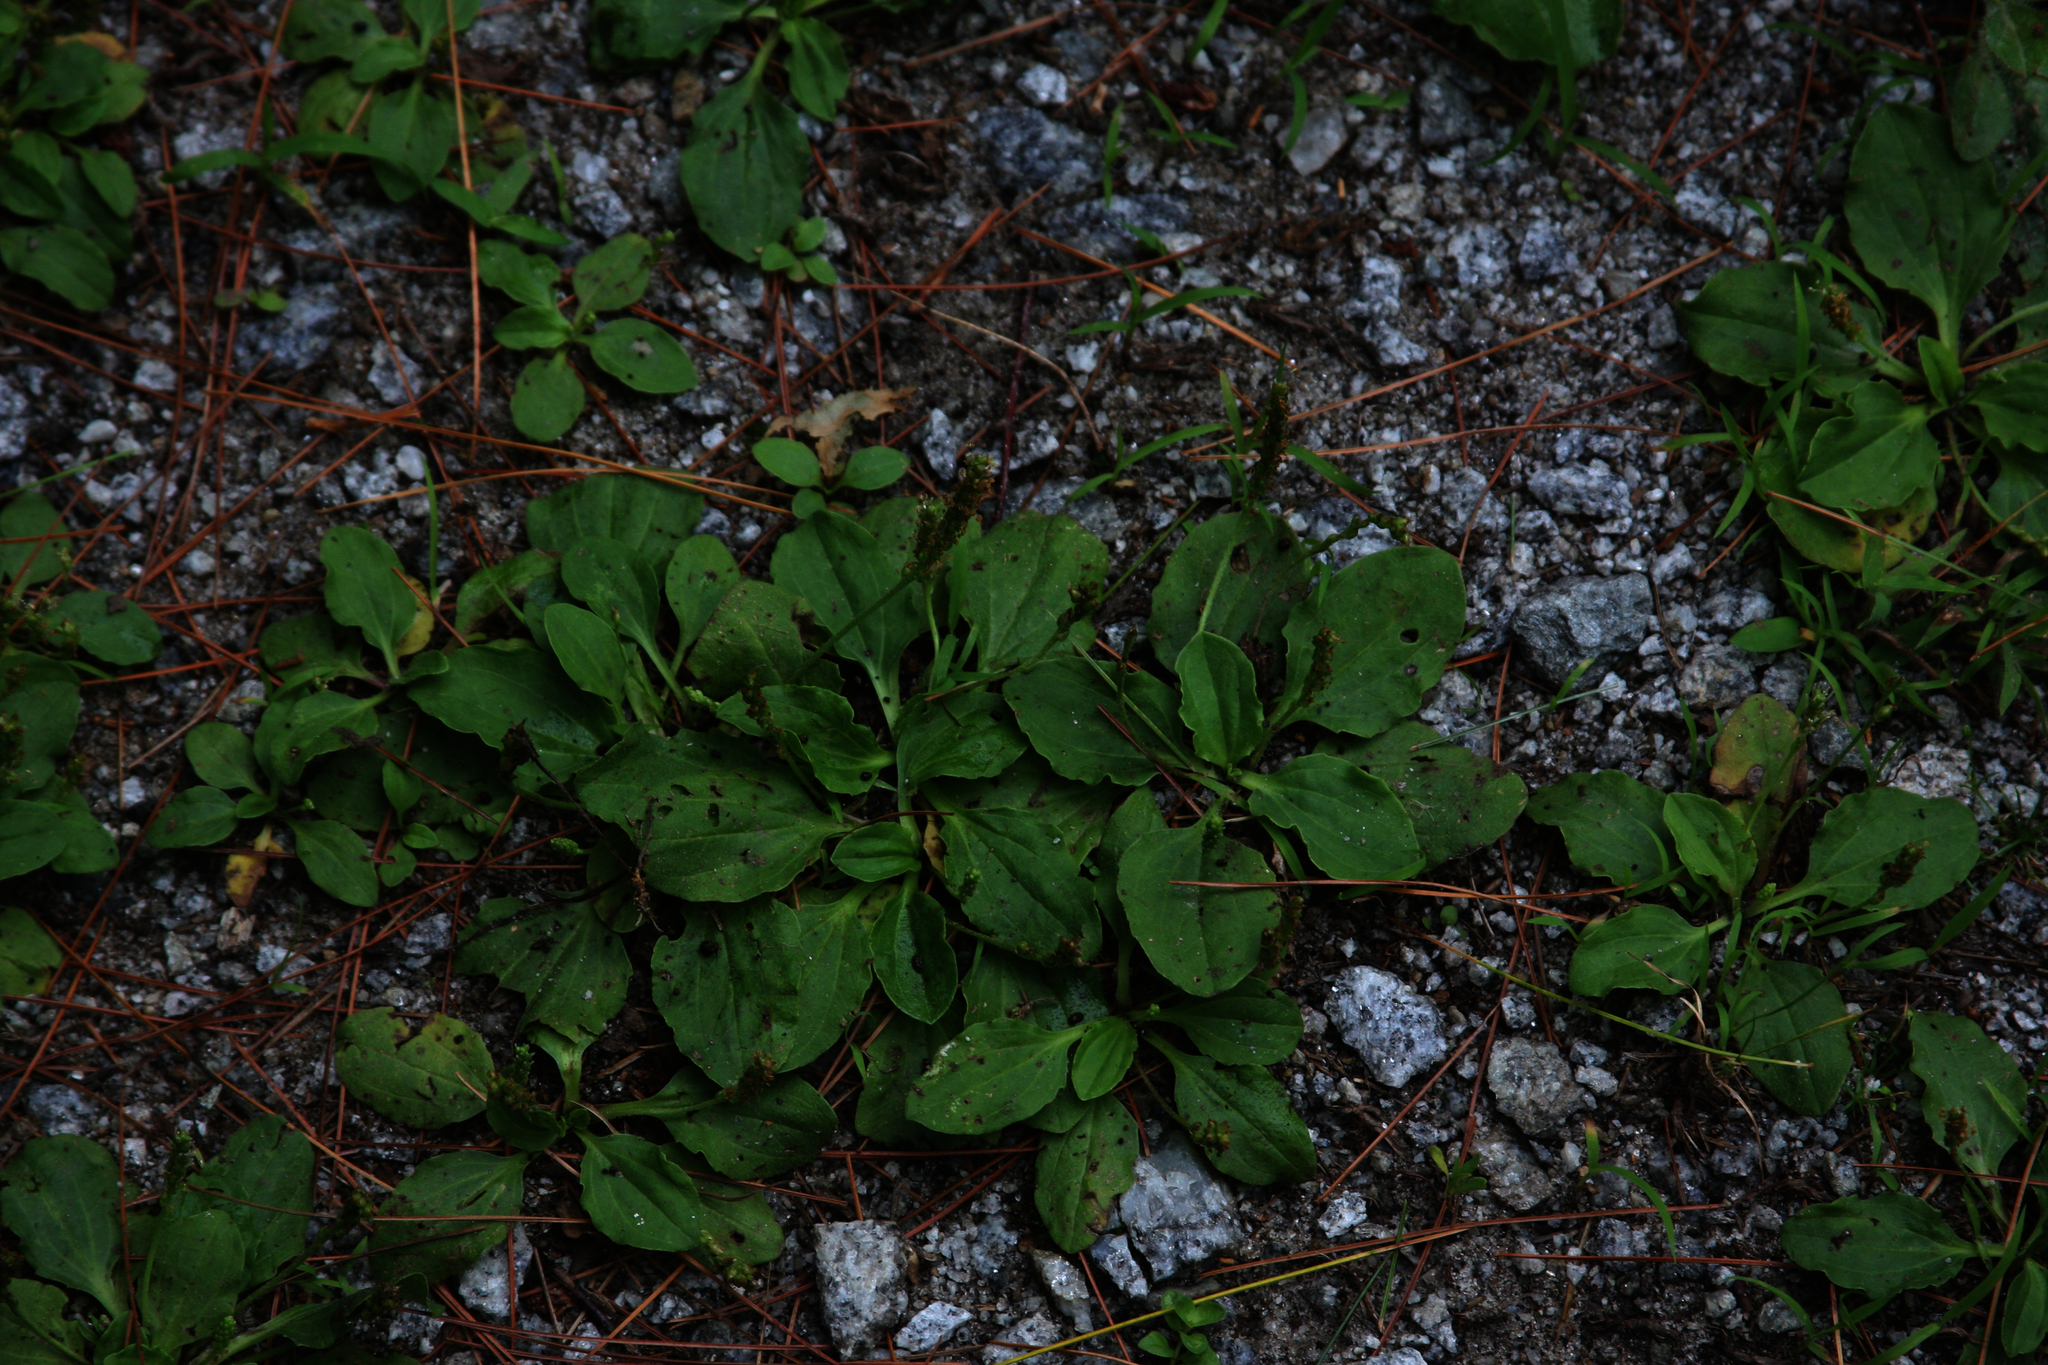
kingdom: Plantae
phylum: Tracheophyta
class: Magnoliopsida
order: Lamiales
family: Plantaginaceae
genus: Plantago
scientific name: Plantago major
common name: Common plantain
